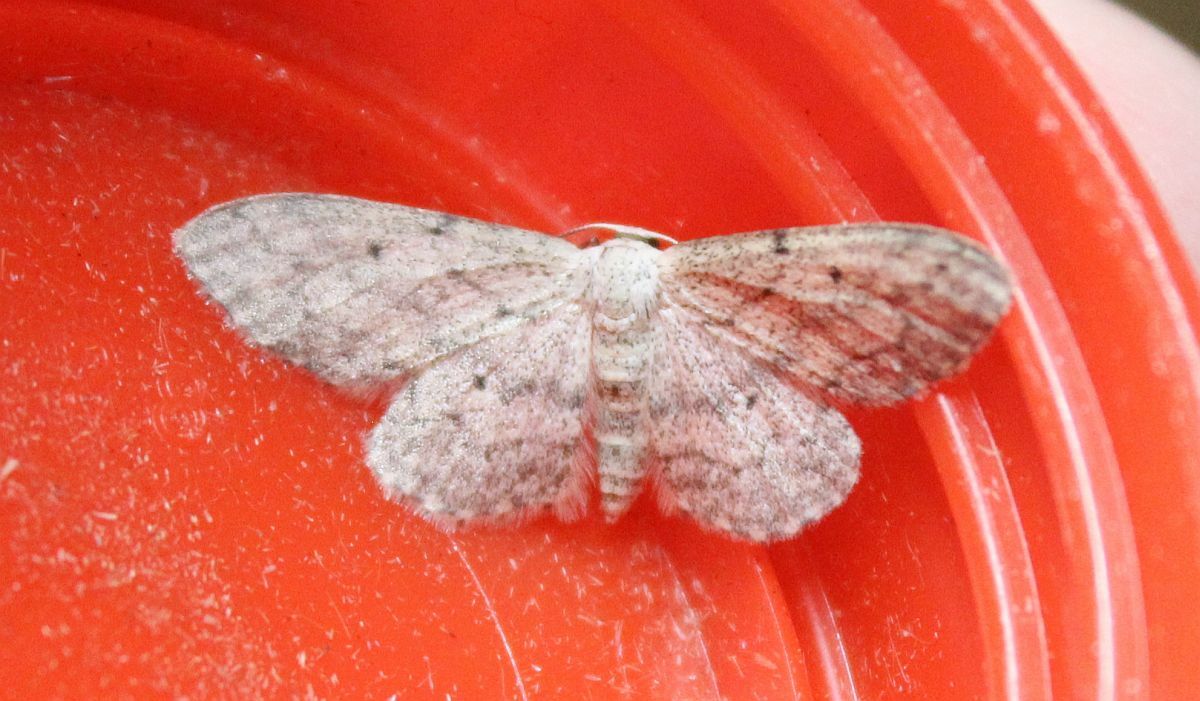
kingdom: Animalia
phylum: Arthropoda
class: Insecta
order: Lepidoptera
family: Geometridae
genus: Idaea
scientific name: Idaea seriata
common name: Small dusty wave
